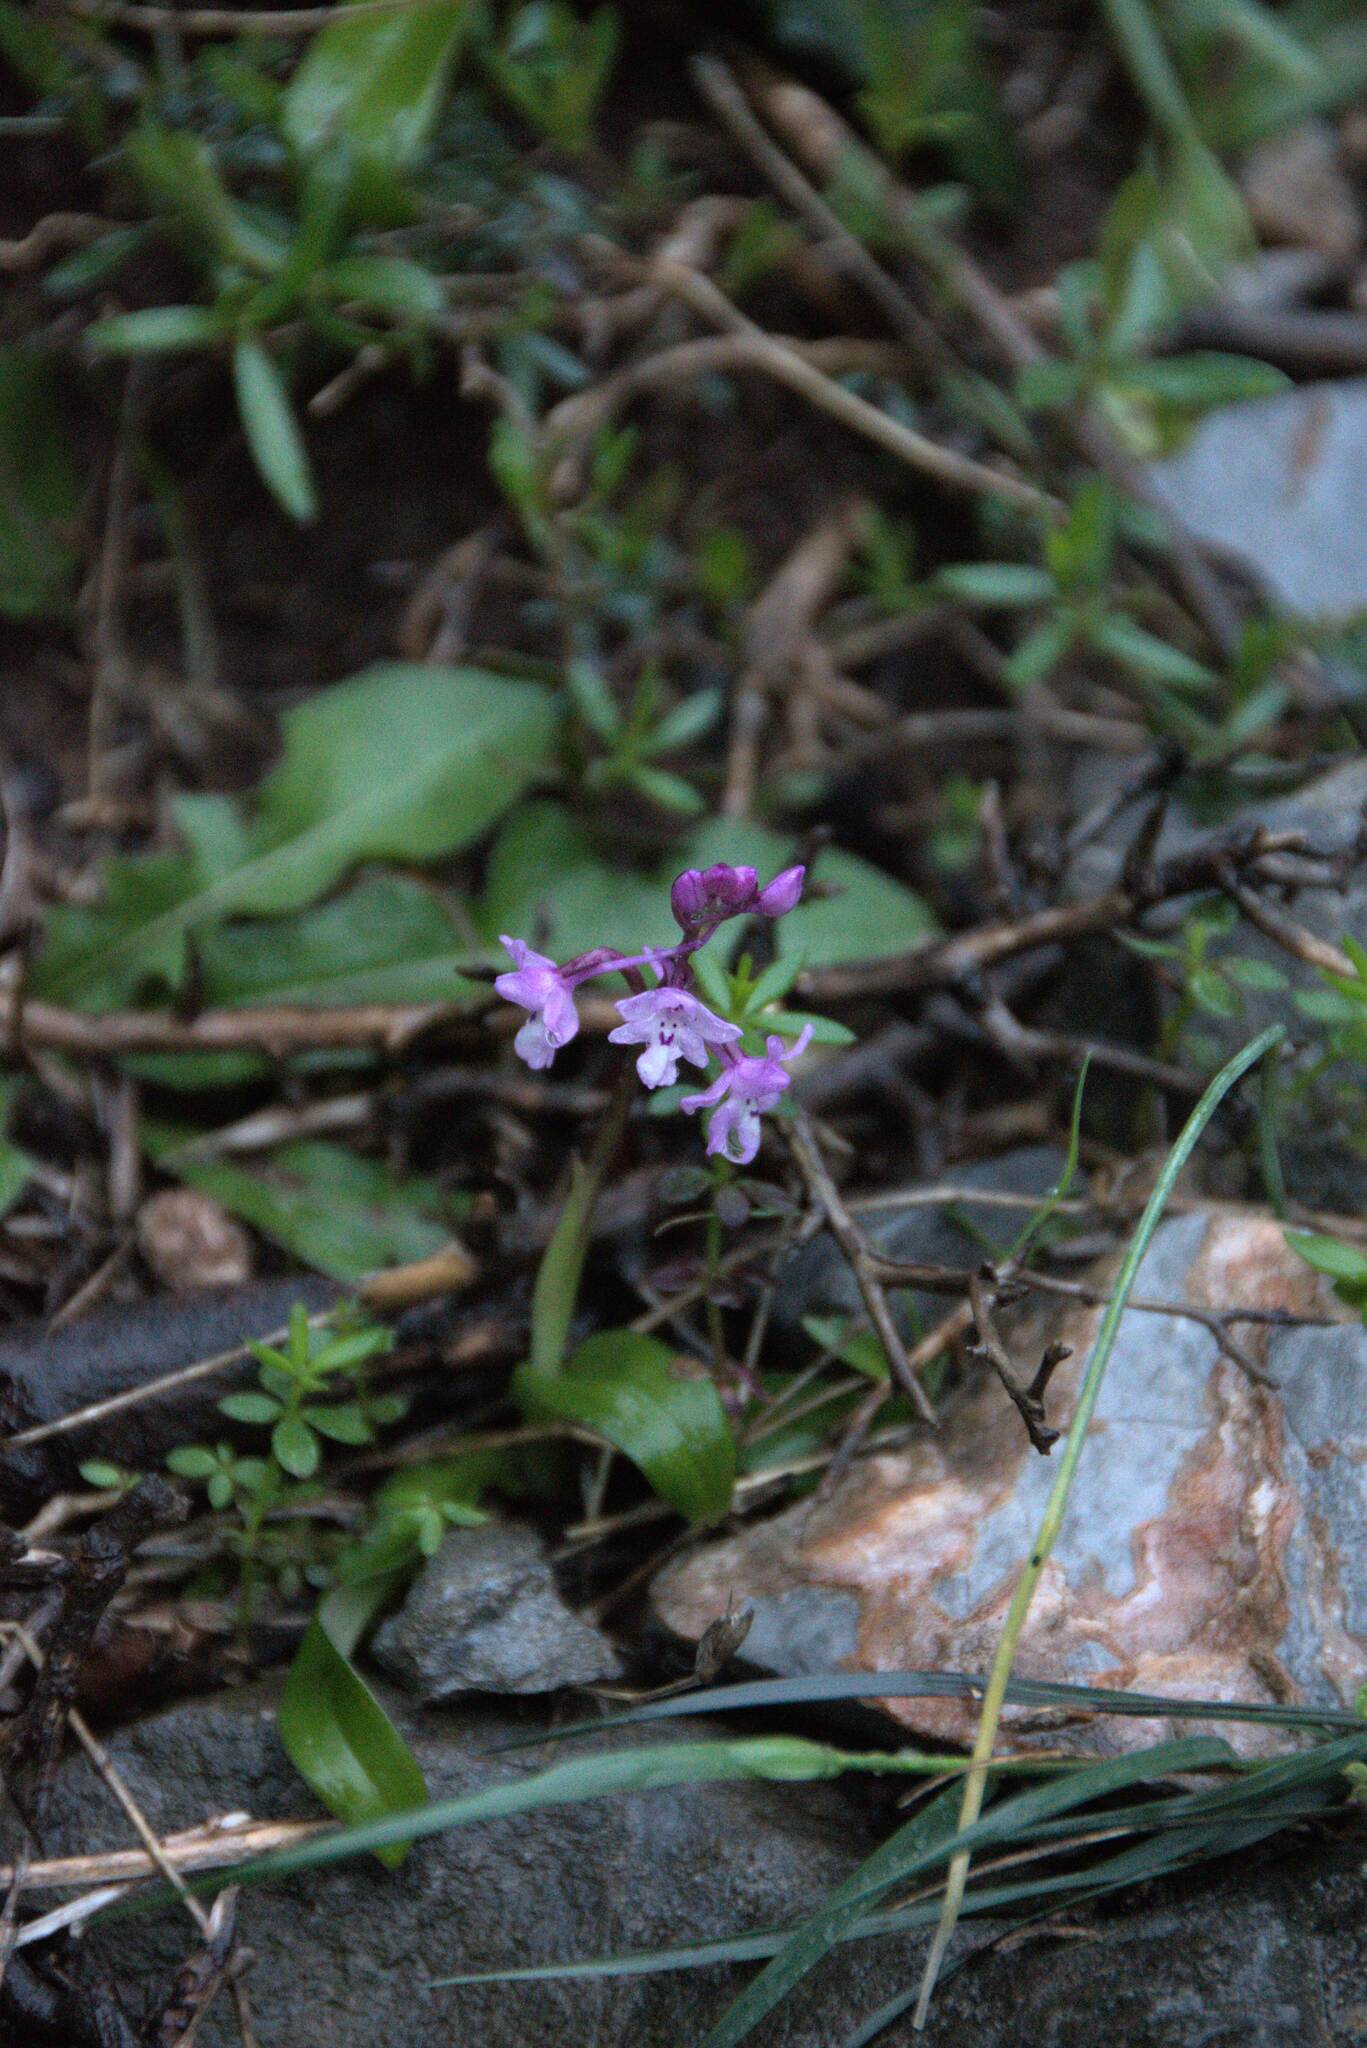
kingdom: Plantae
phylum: Tracheophyta
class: Liliopsida
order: Asparagales
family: Orchidaceae
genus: Orchis
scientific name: Orchis quadripunctata
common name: Four-spotted orchid
